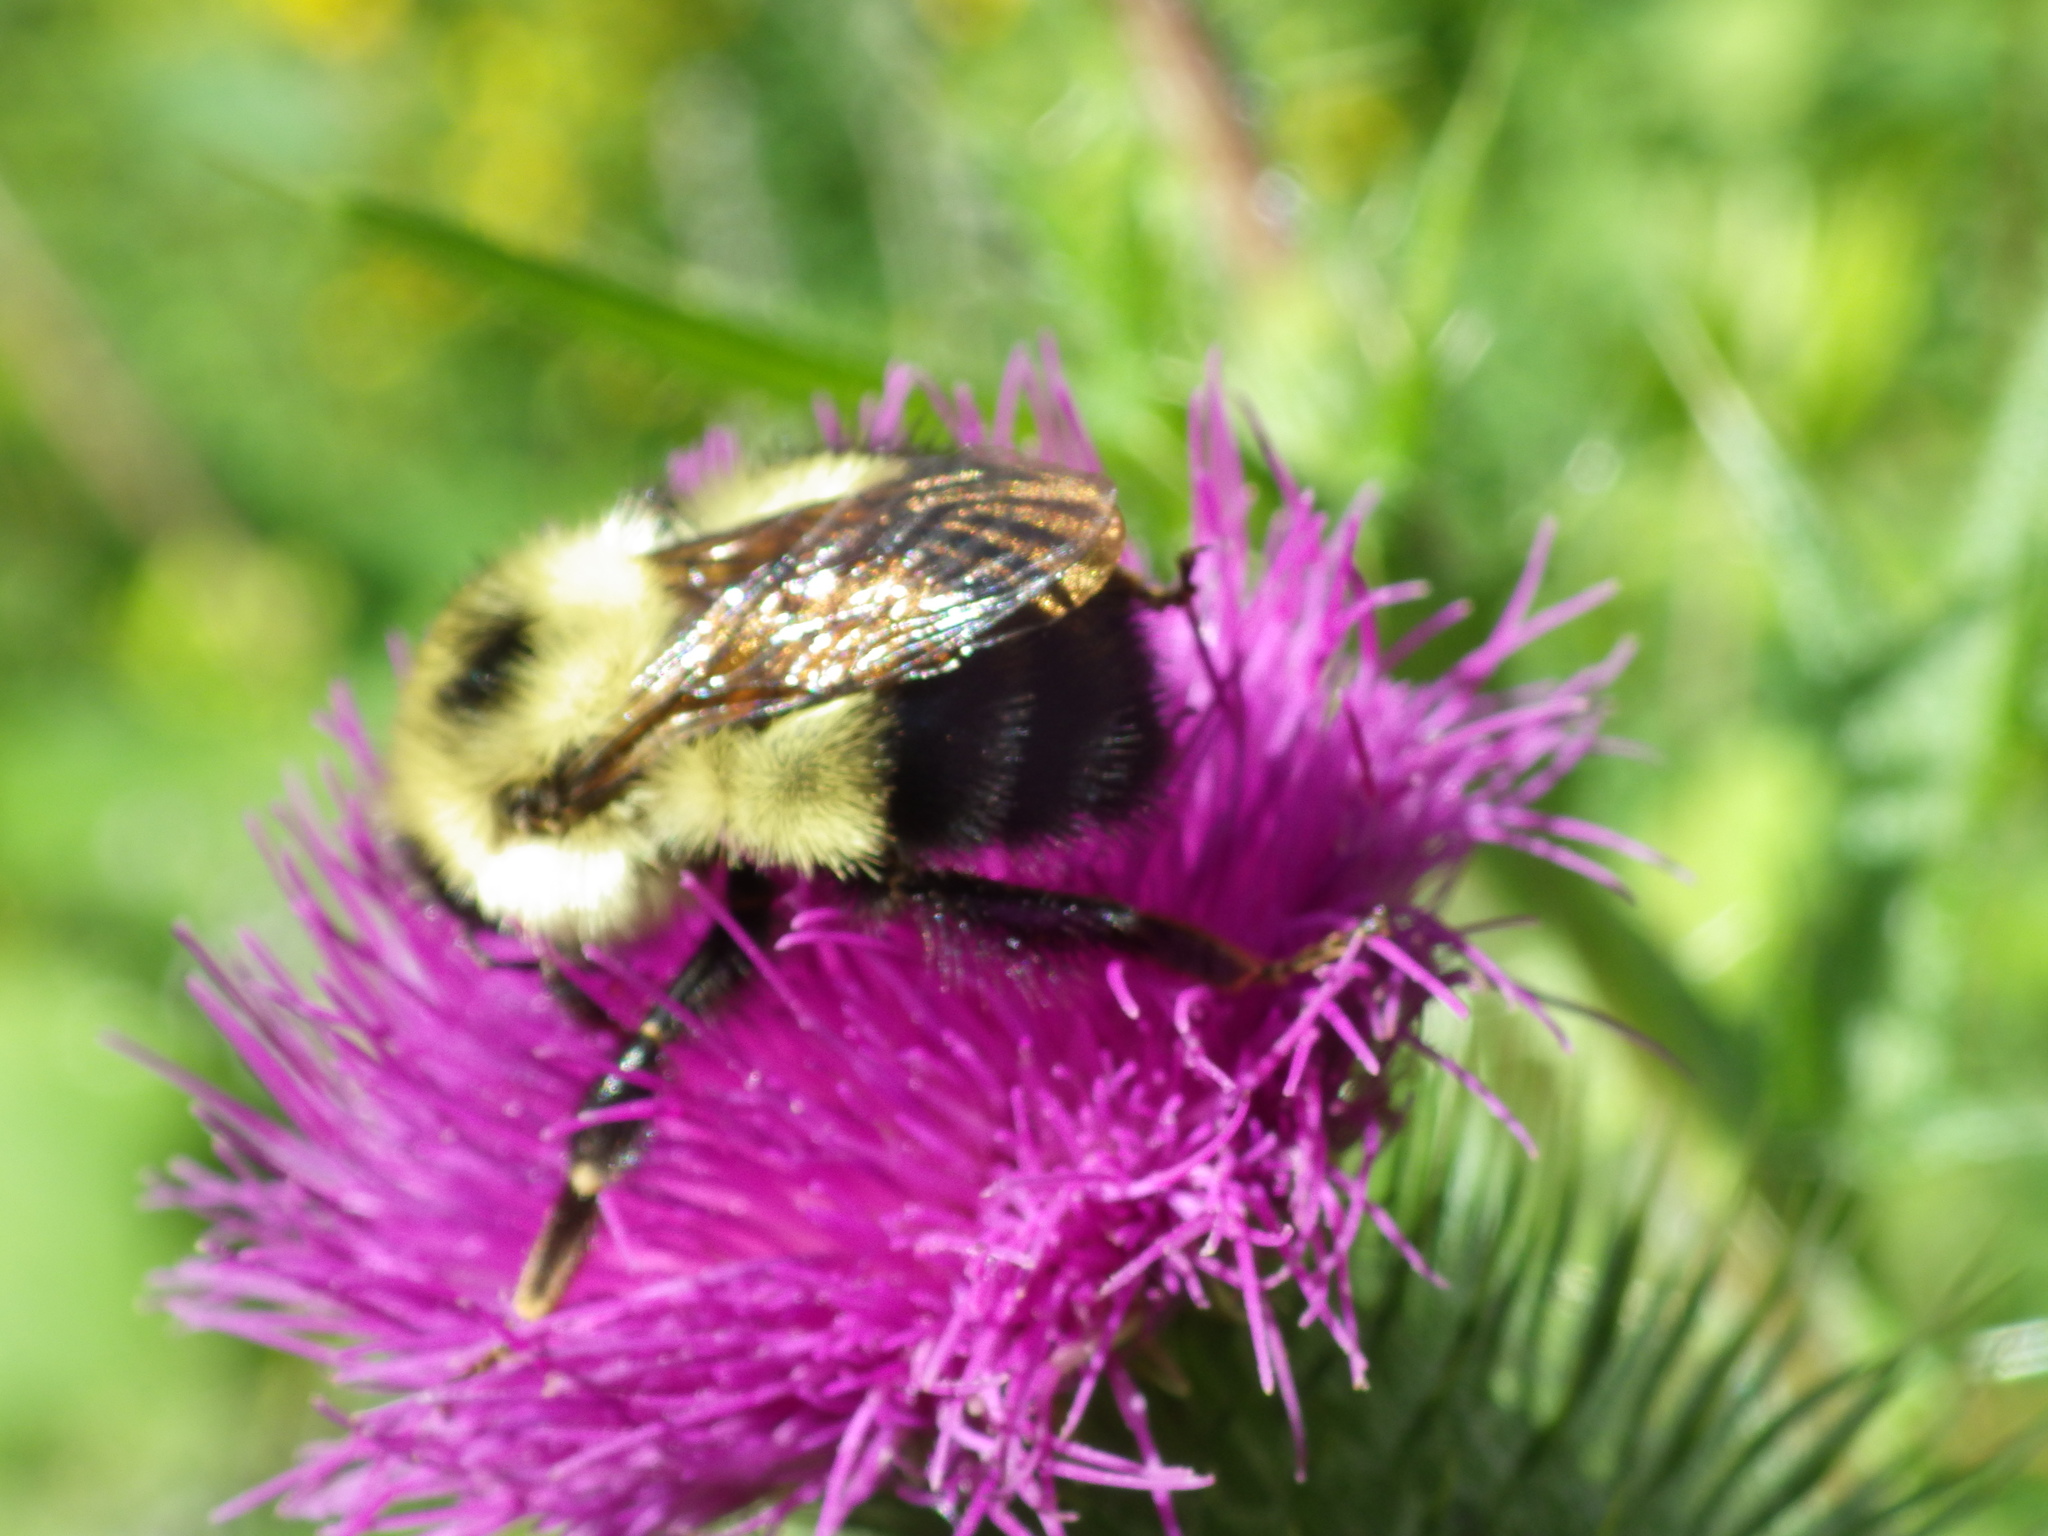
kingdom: Animalia
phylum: Arthropoda
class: Insecta
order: Hymenoptera
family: Apidae
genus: Bombus
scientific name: Bombus vagans
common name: Half-black bumble bee
